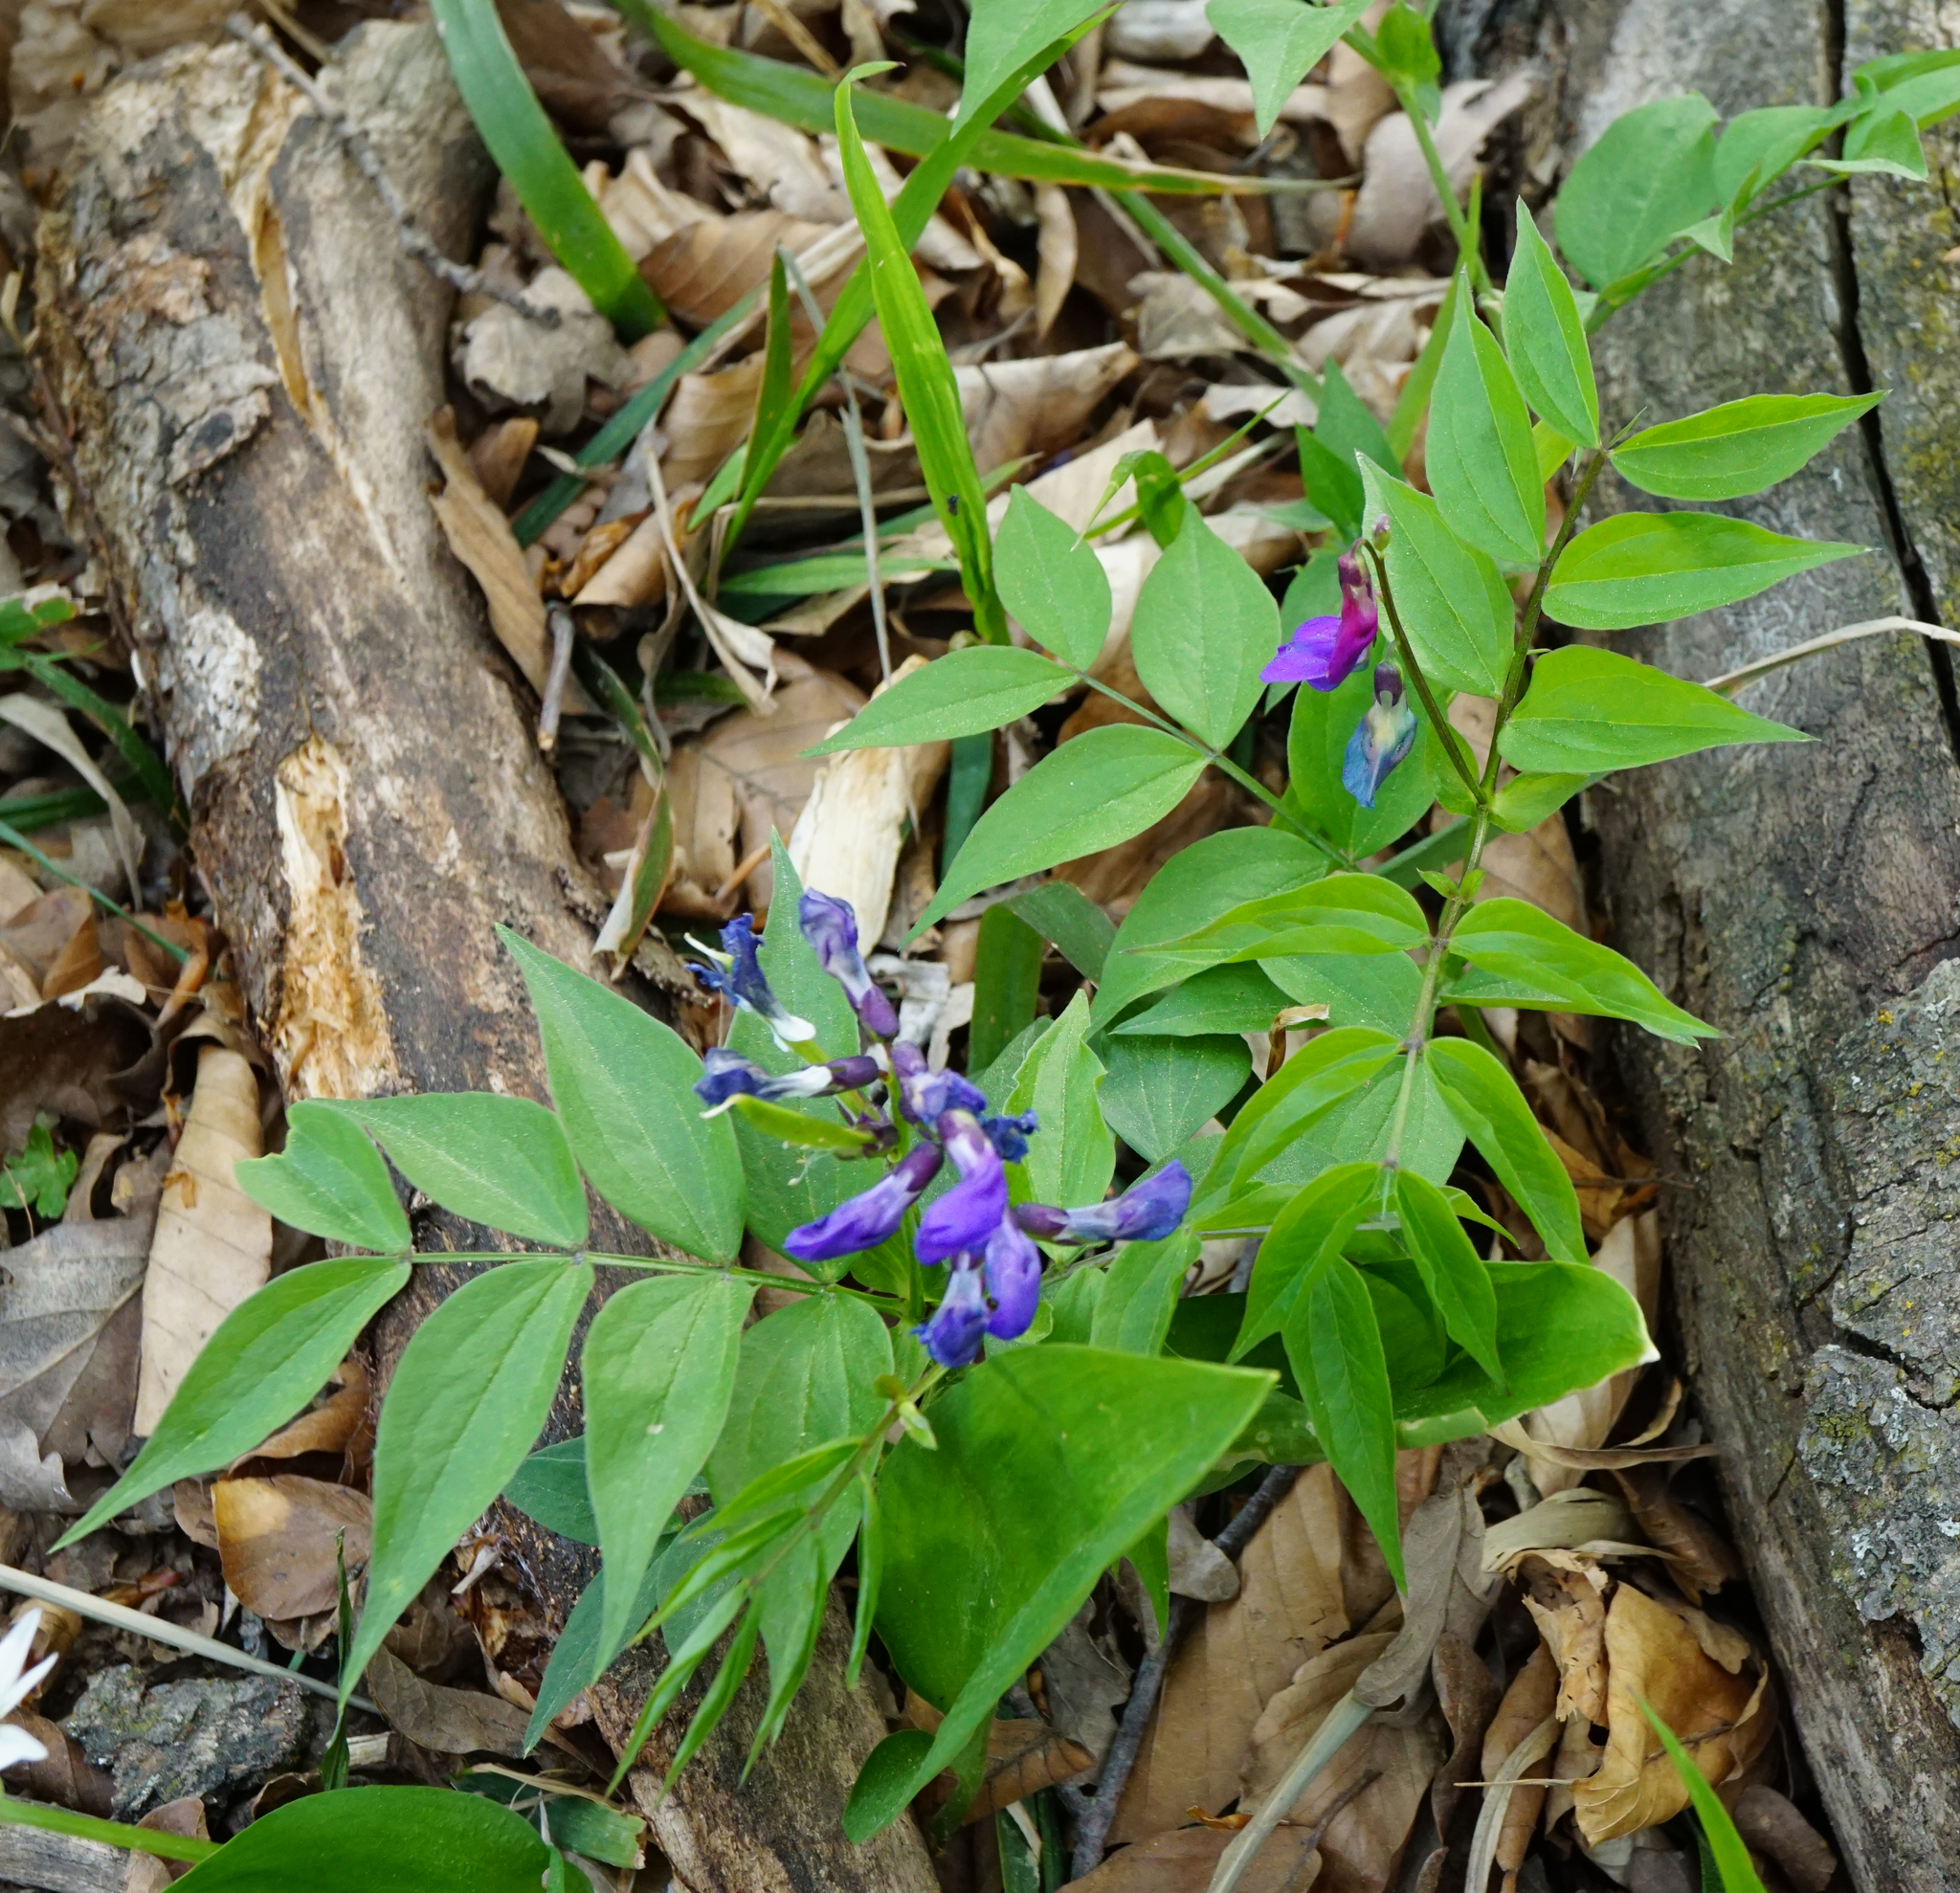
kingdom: Plantae
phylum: Tracheophyta
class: Magnoliopsida
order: Fabales
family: Fabaceae
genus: Lathyrus
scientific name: Lathyrus vernus
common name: Spring pea
